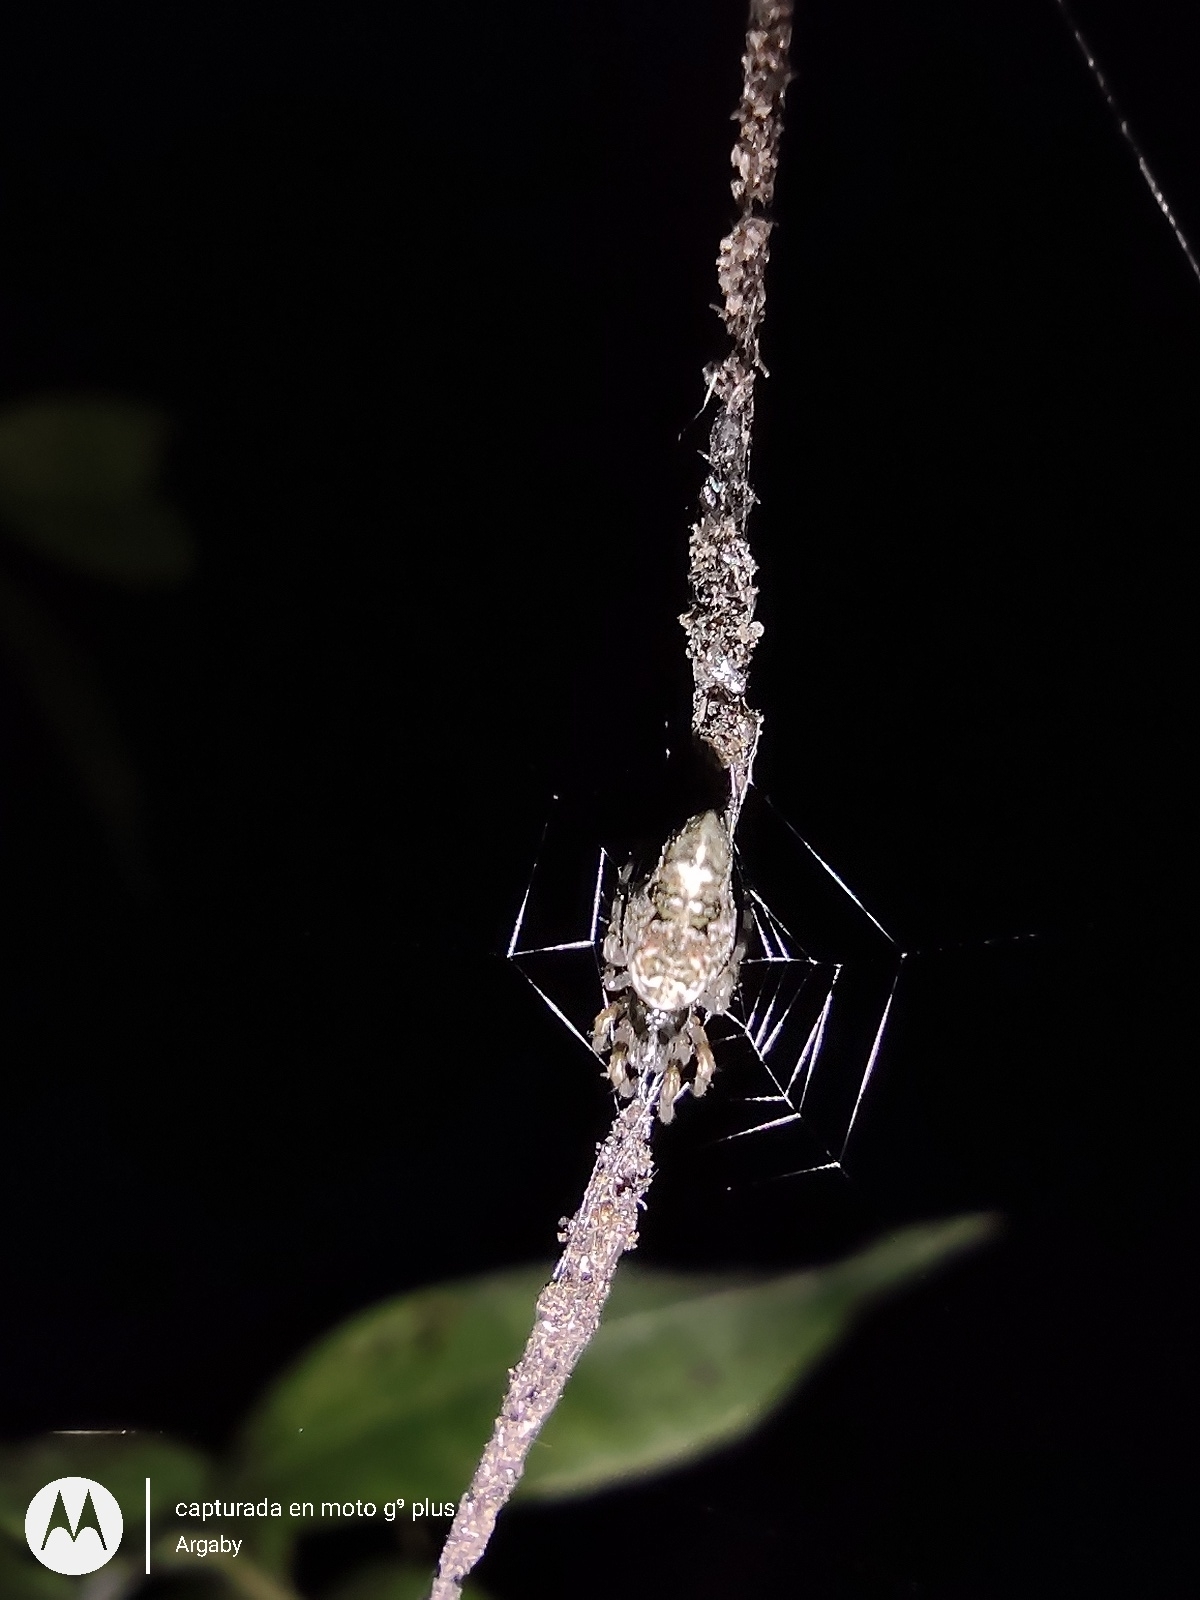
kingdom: Animalia
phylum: Arthropoda
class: Arachnida
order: Araneae
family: Araneidae
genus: Cyclosa
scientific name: Cyclosa machadinho
